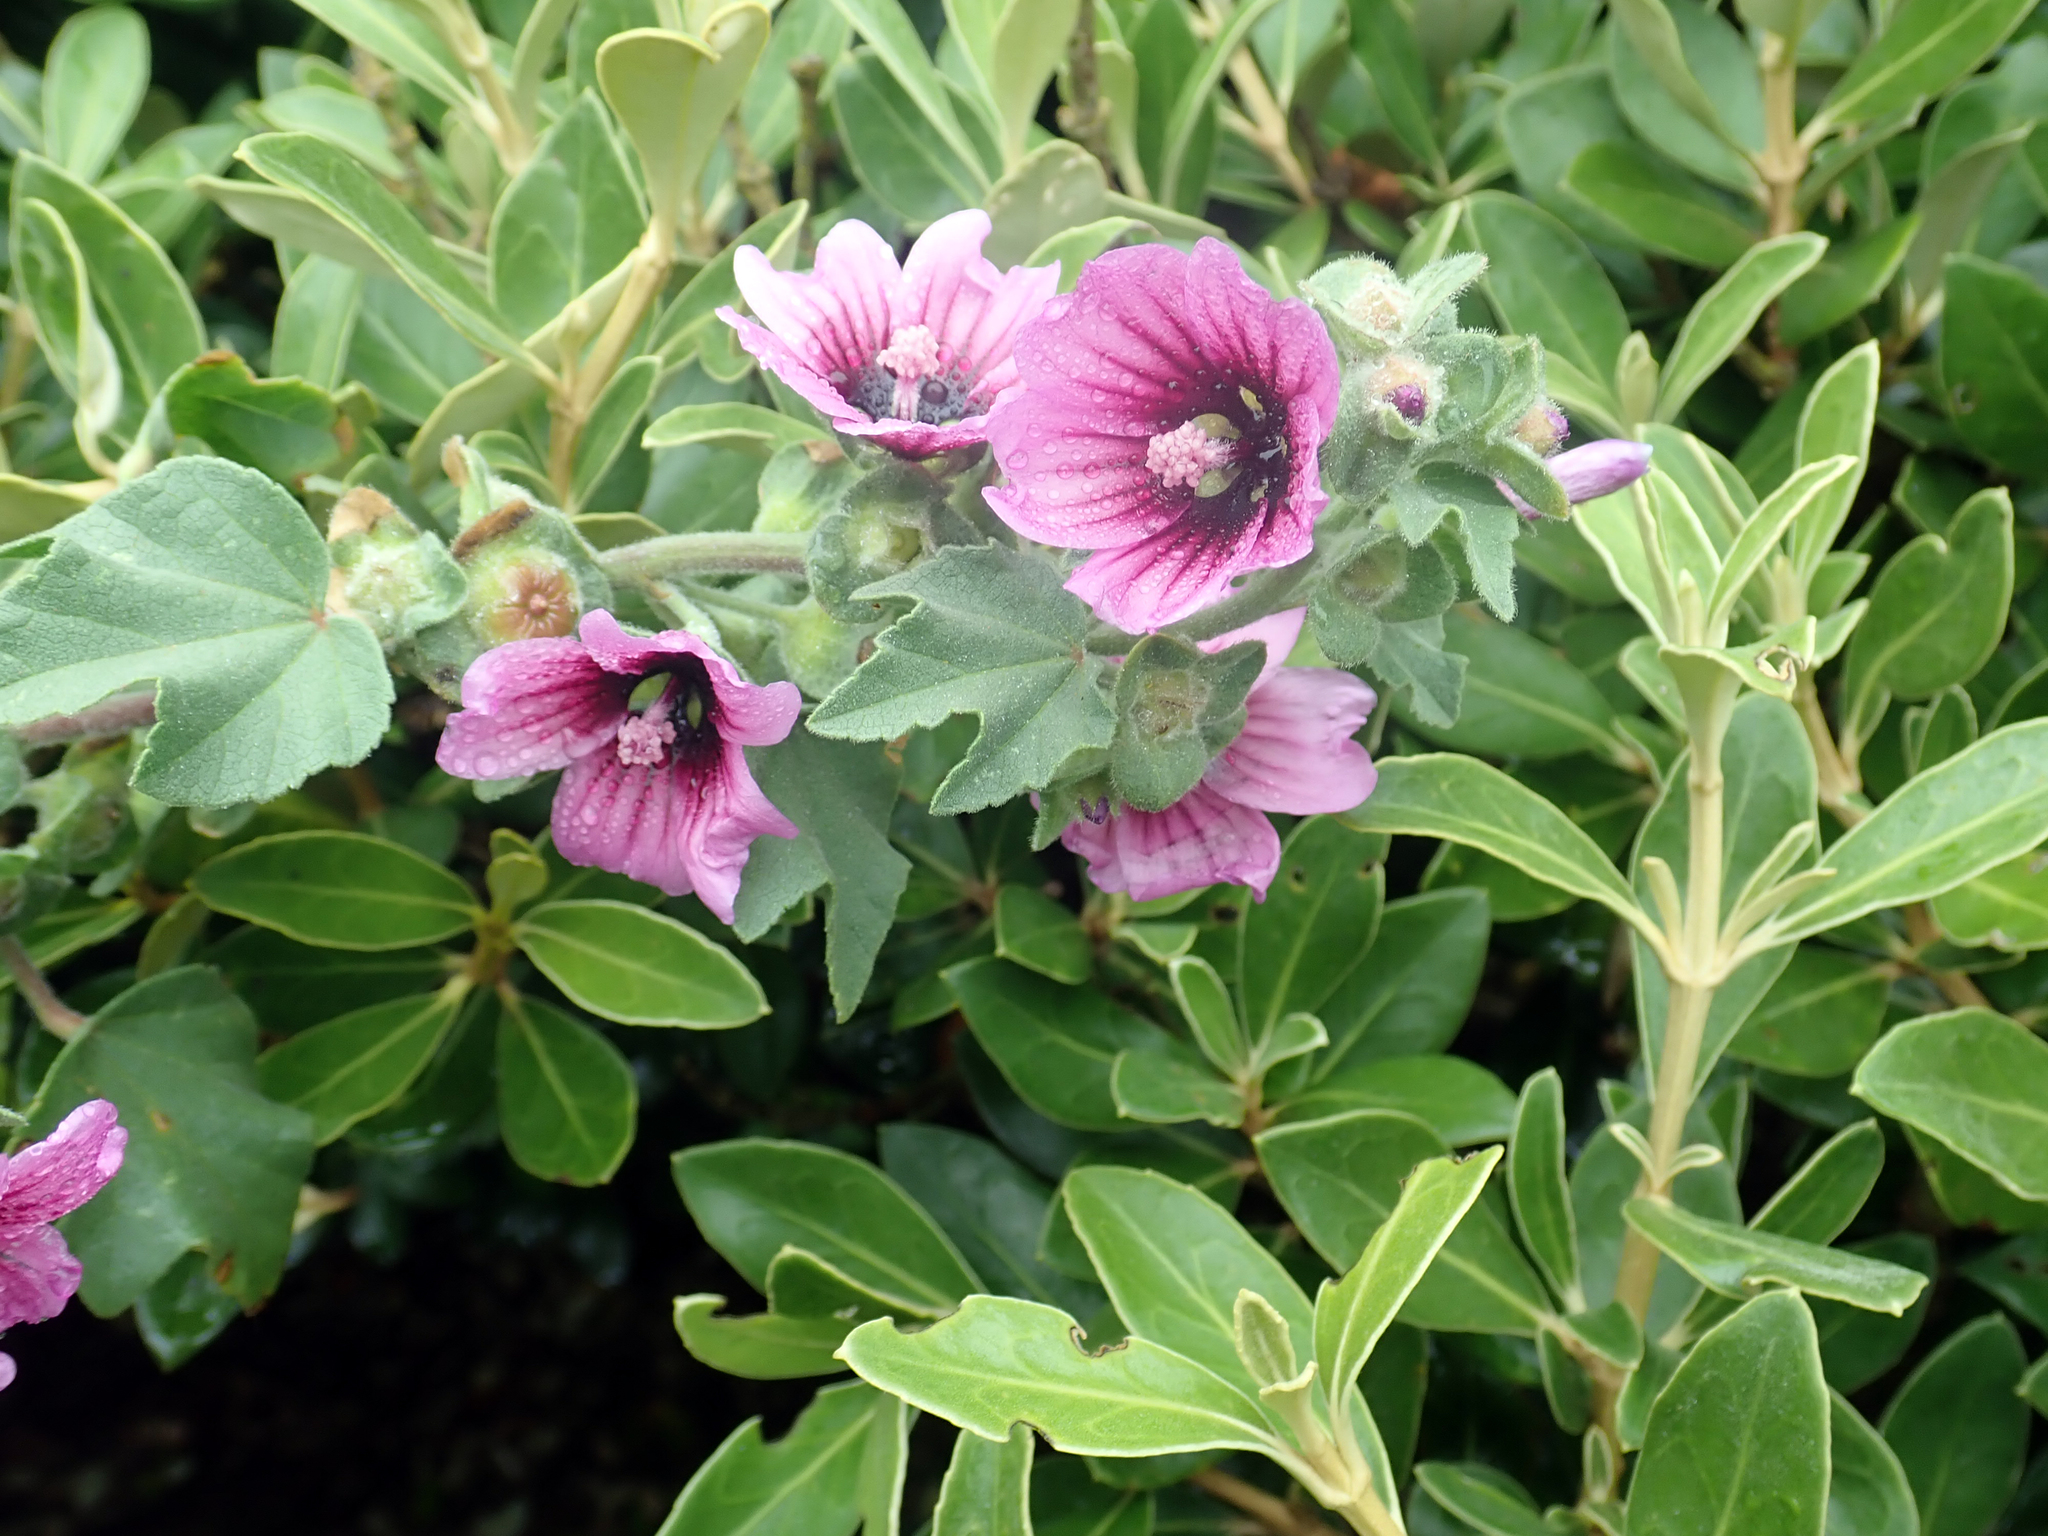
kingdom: Plantae
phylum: Tracheophyta
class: Magnoliopsida
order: Malvales
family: Malvaceae
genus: Malva
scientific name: Malva arborea
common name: Tree mallow
